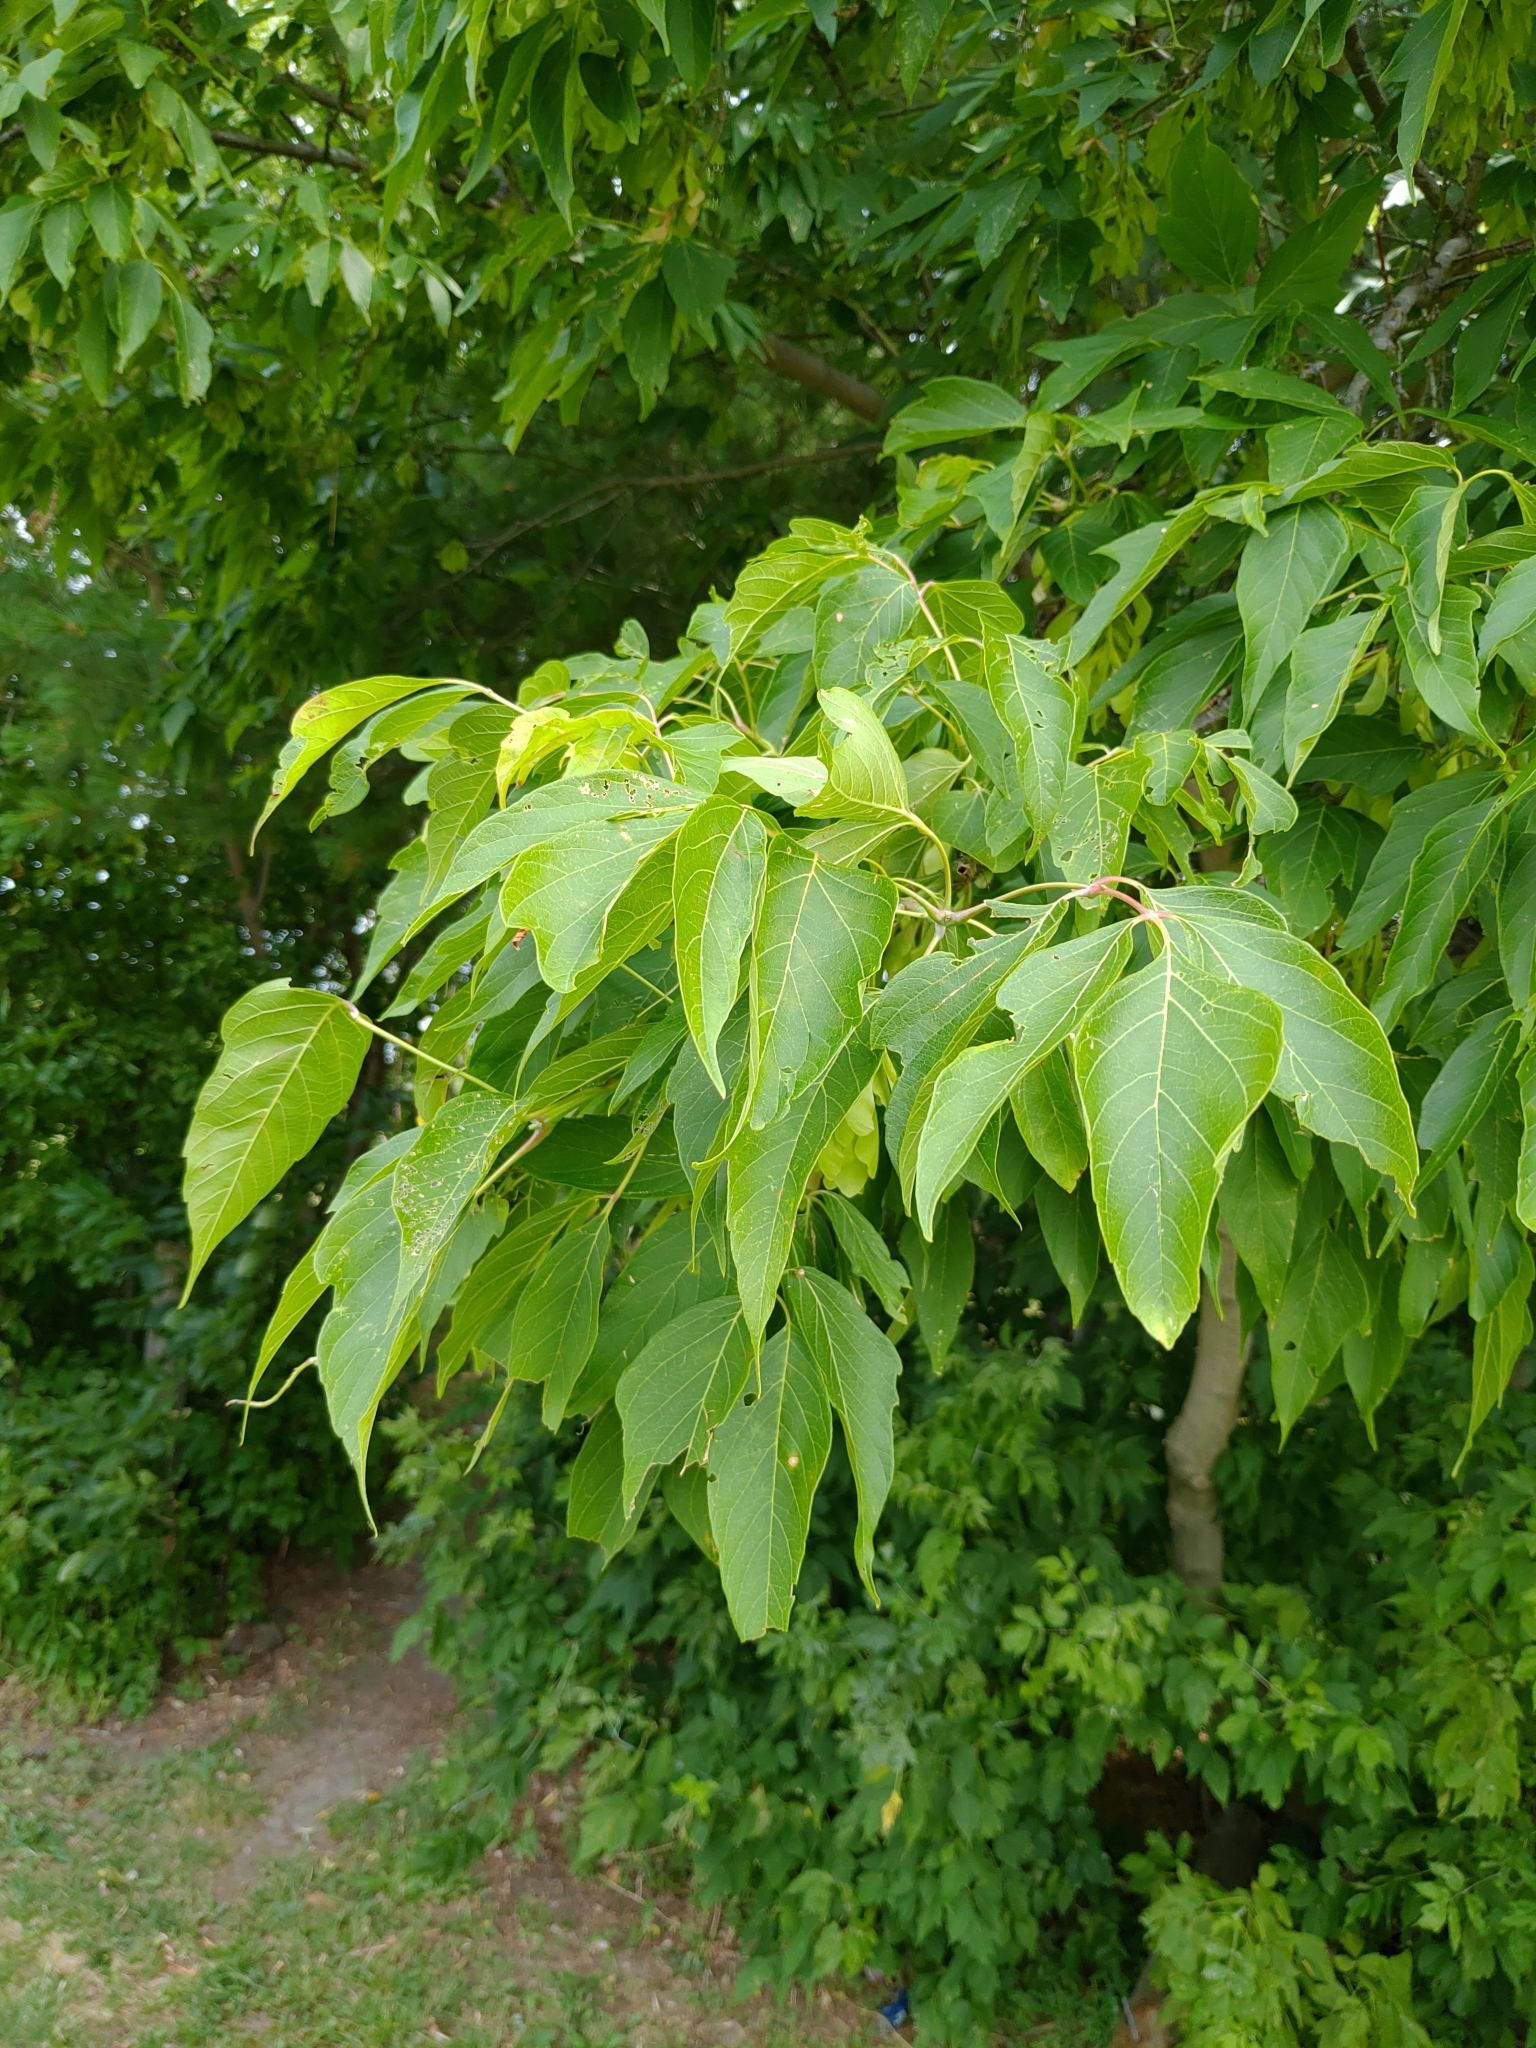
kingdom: Plantae
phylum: Tracheophyta
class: Magnoliopsida
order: Sapindales
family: Sapindaceae
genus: Acer
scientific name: Acer negundo
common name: Ashleaf maple
